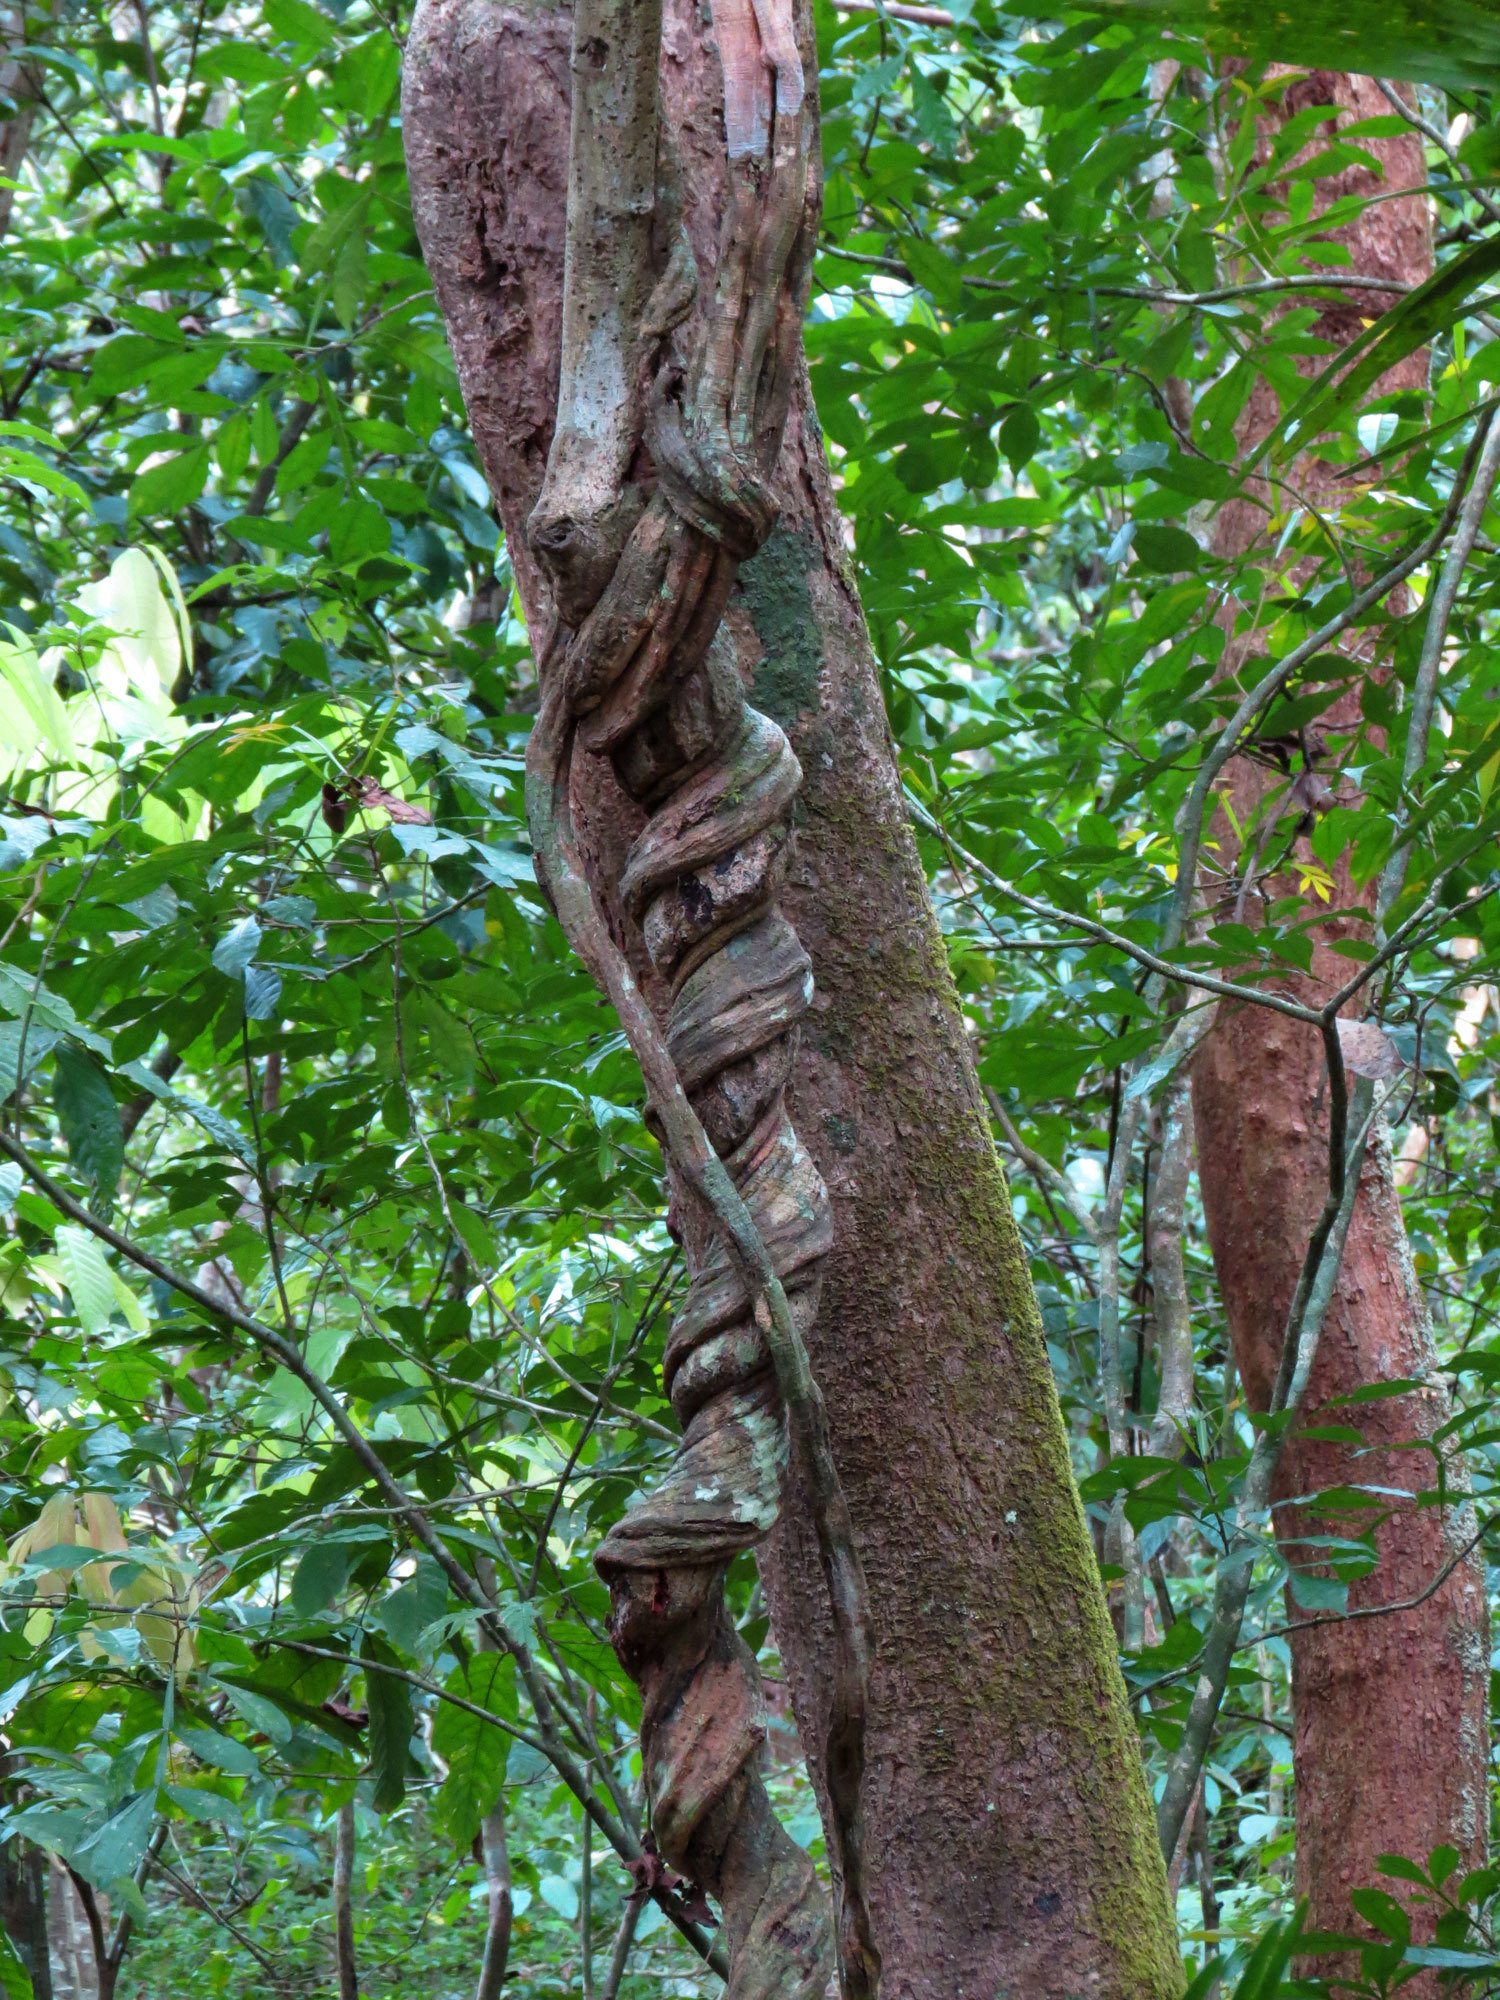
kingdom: Plantae
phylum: Tracheophyta
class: Magnoliopsida
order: Solanales
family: Convolvulaceae
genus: Maripa
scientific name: Maripa panamensis
